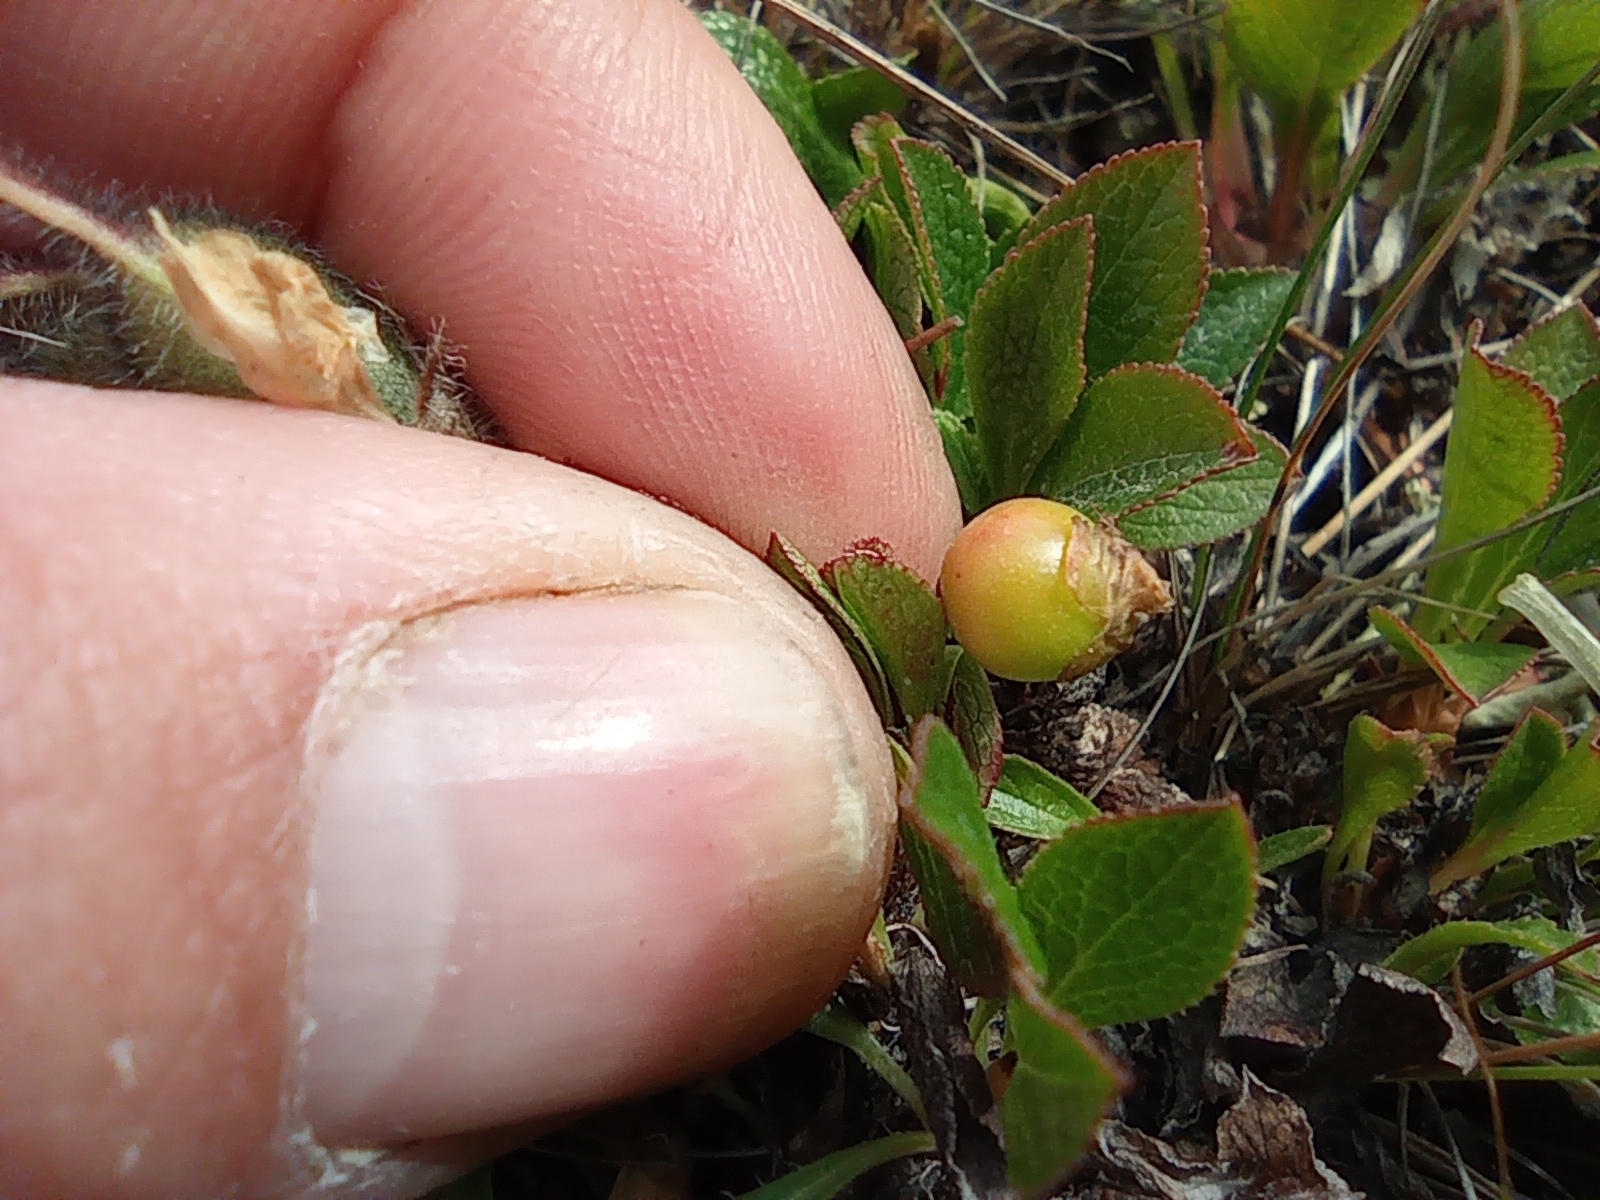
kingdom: Plantae
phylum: Tracheophyta
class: Magnoliopsida
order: Ericales
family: Ericaceae
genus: Arctostaphylos
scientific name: Arctostaphylos alpinus
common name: Alpine bearberry
